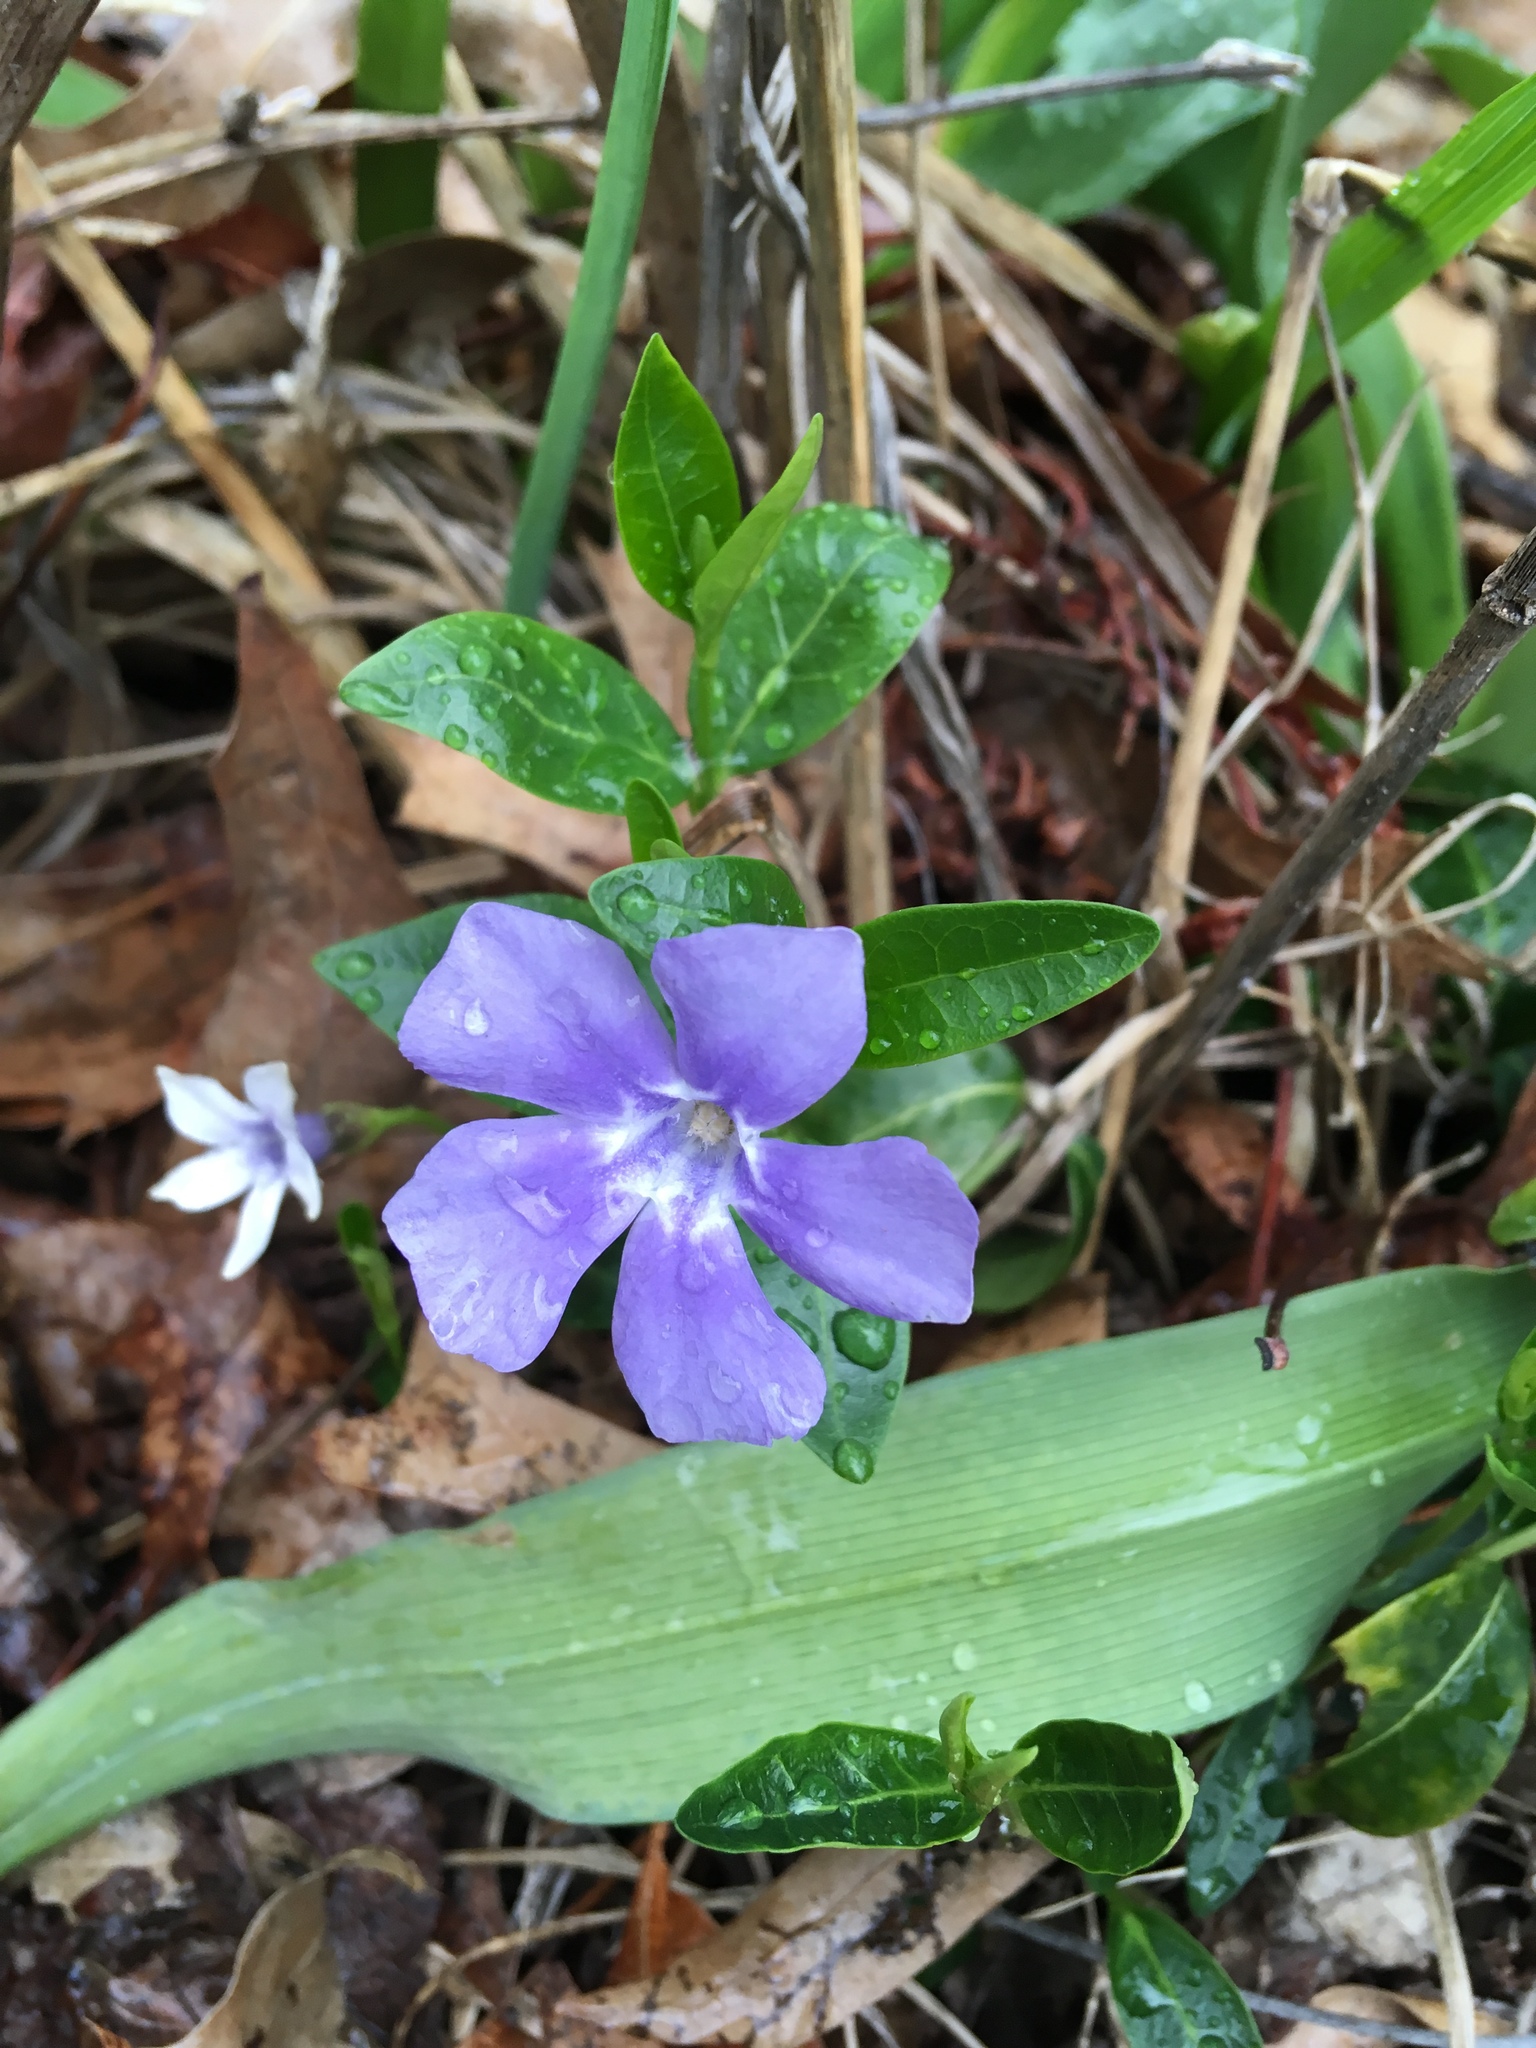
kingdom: Plantae
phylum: Tracheophyta
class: Magnoliopsida
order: Gentianales
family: Apocynaceae
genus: Vinca
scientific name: Vinca minor
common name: Lesser periwinkle
